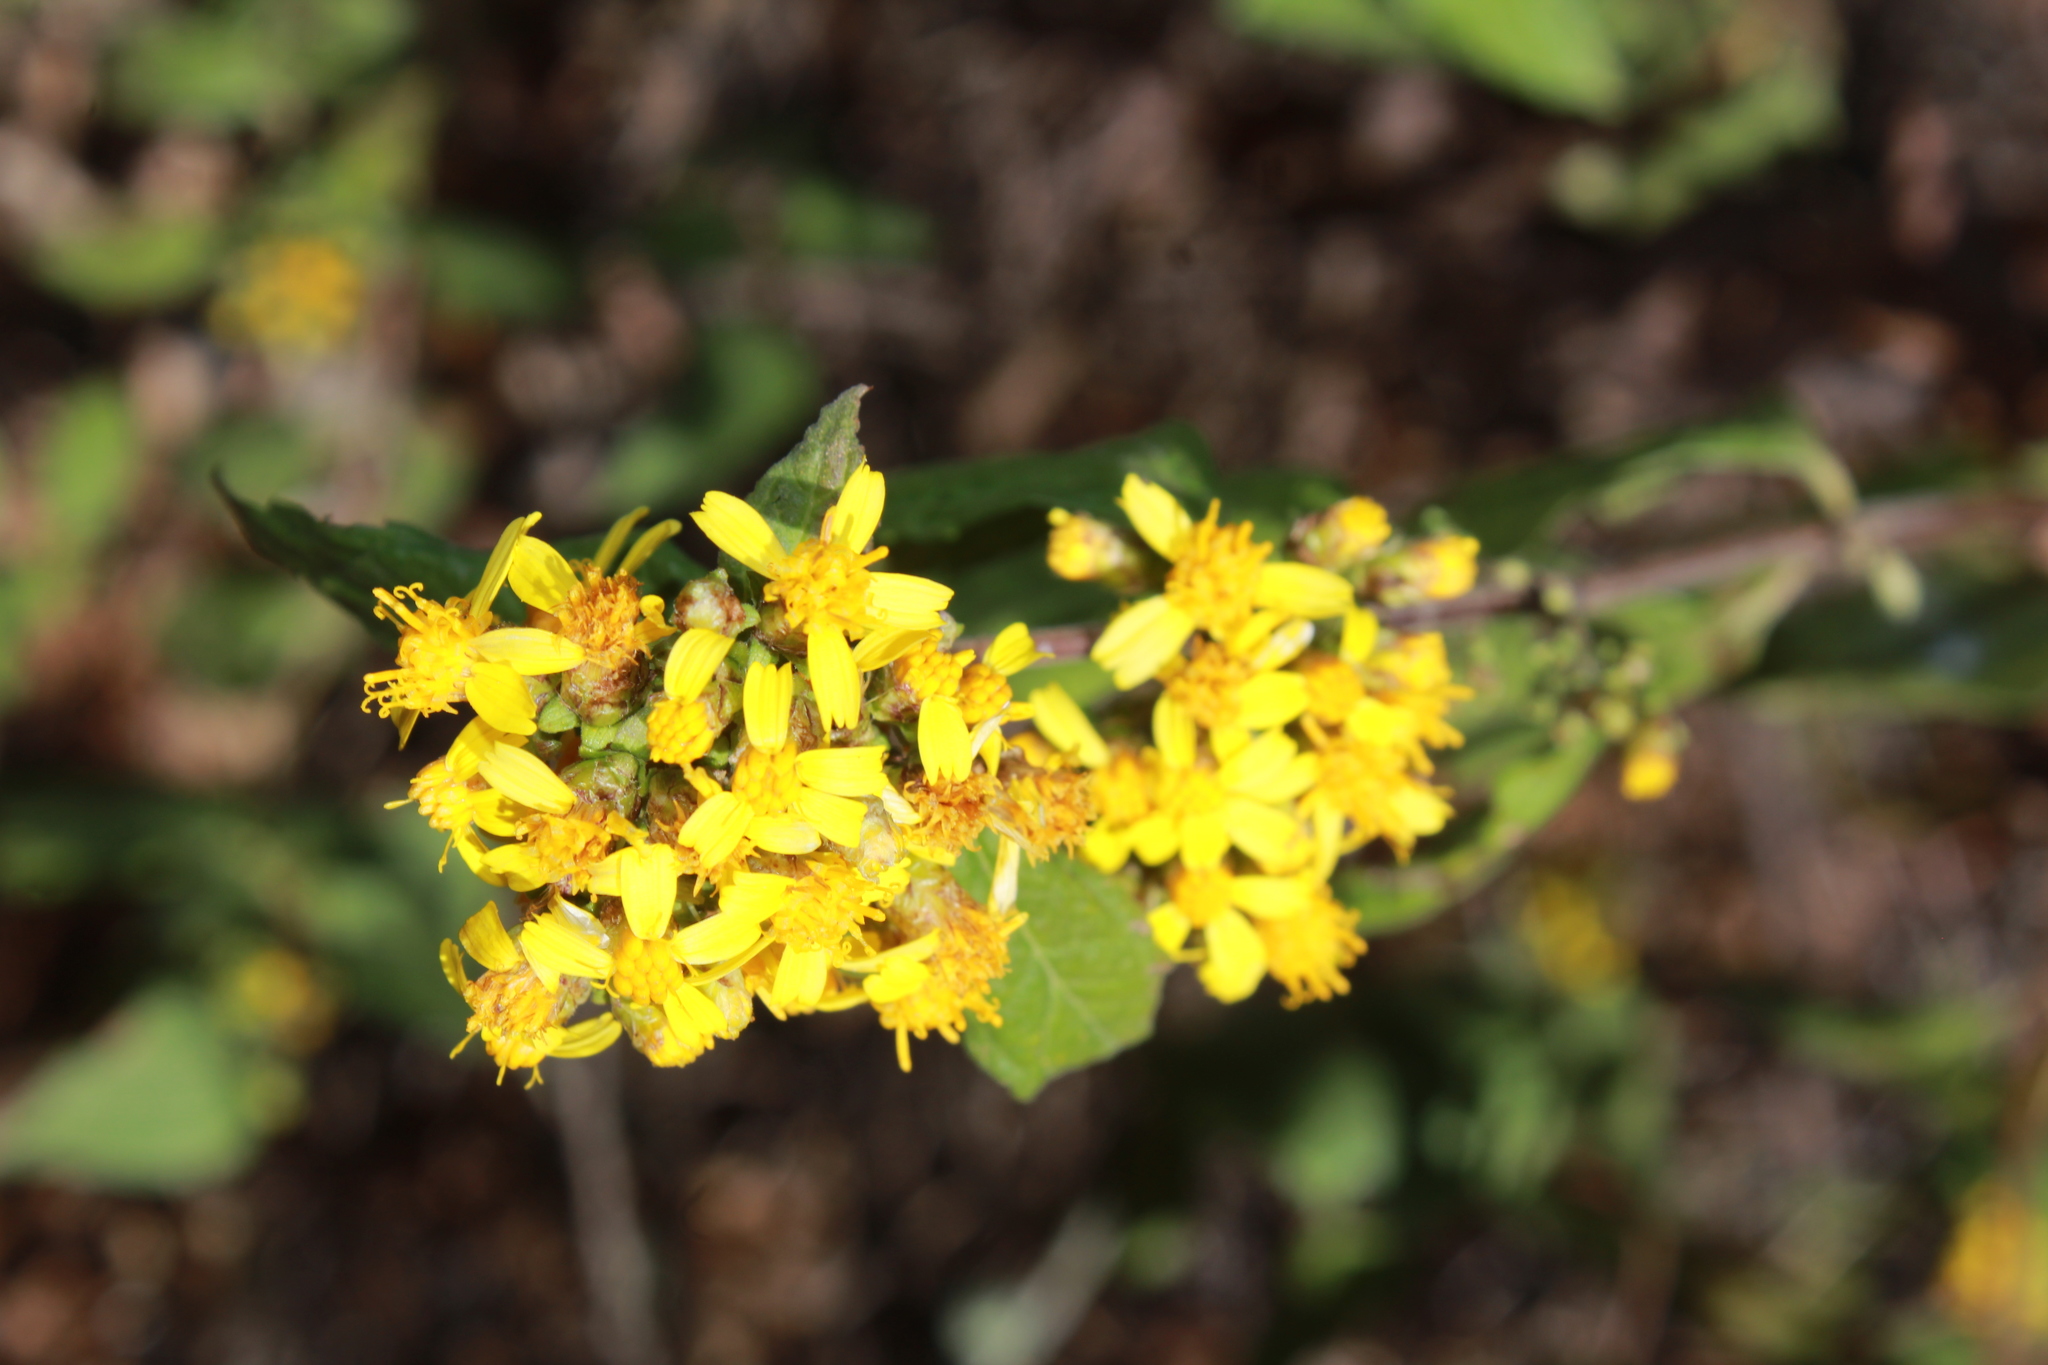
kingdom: Plantae
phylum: Tracheophyta
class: Magnoliopsida
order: Asterales
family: Asteraceae
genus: Calea
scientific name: Calea urticifolia
